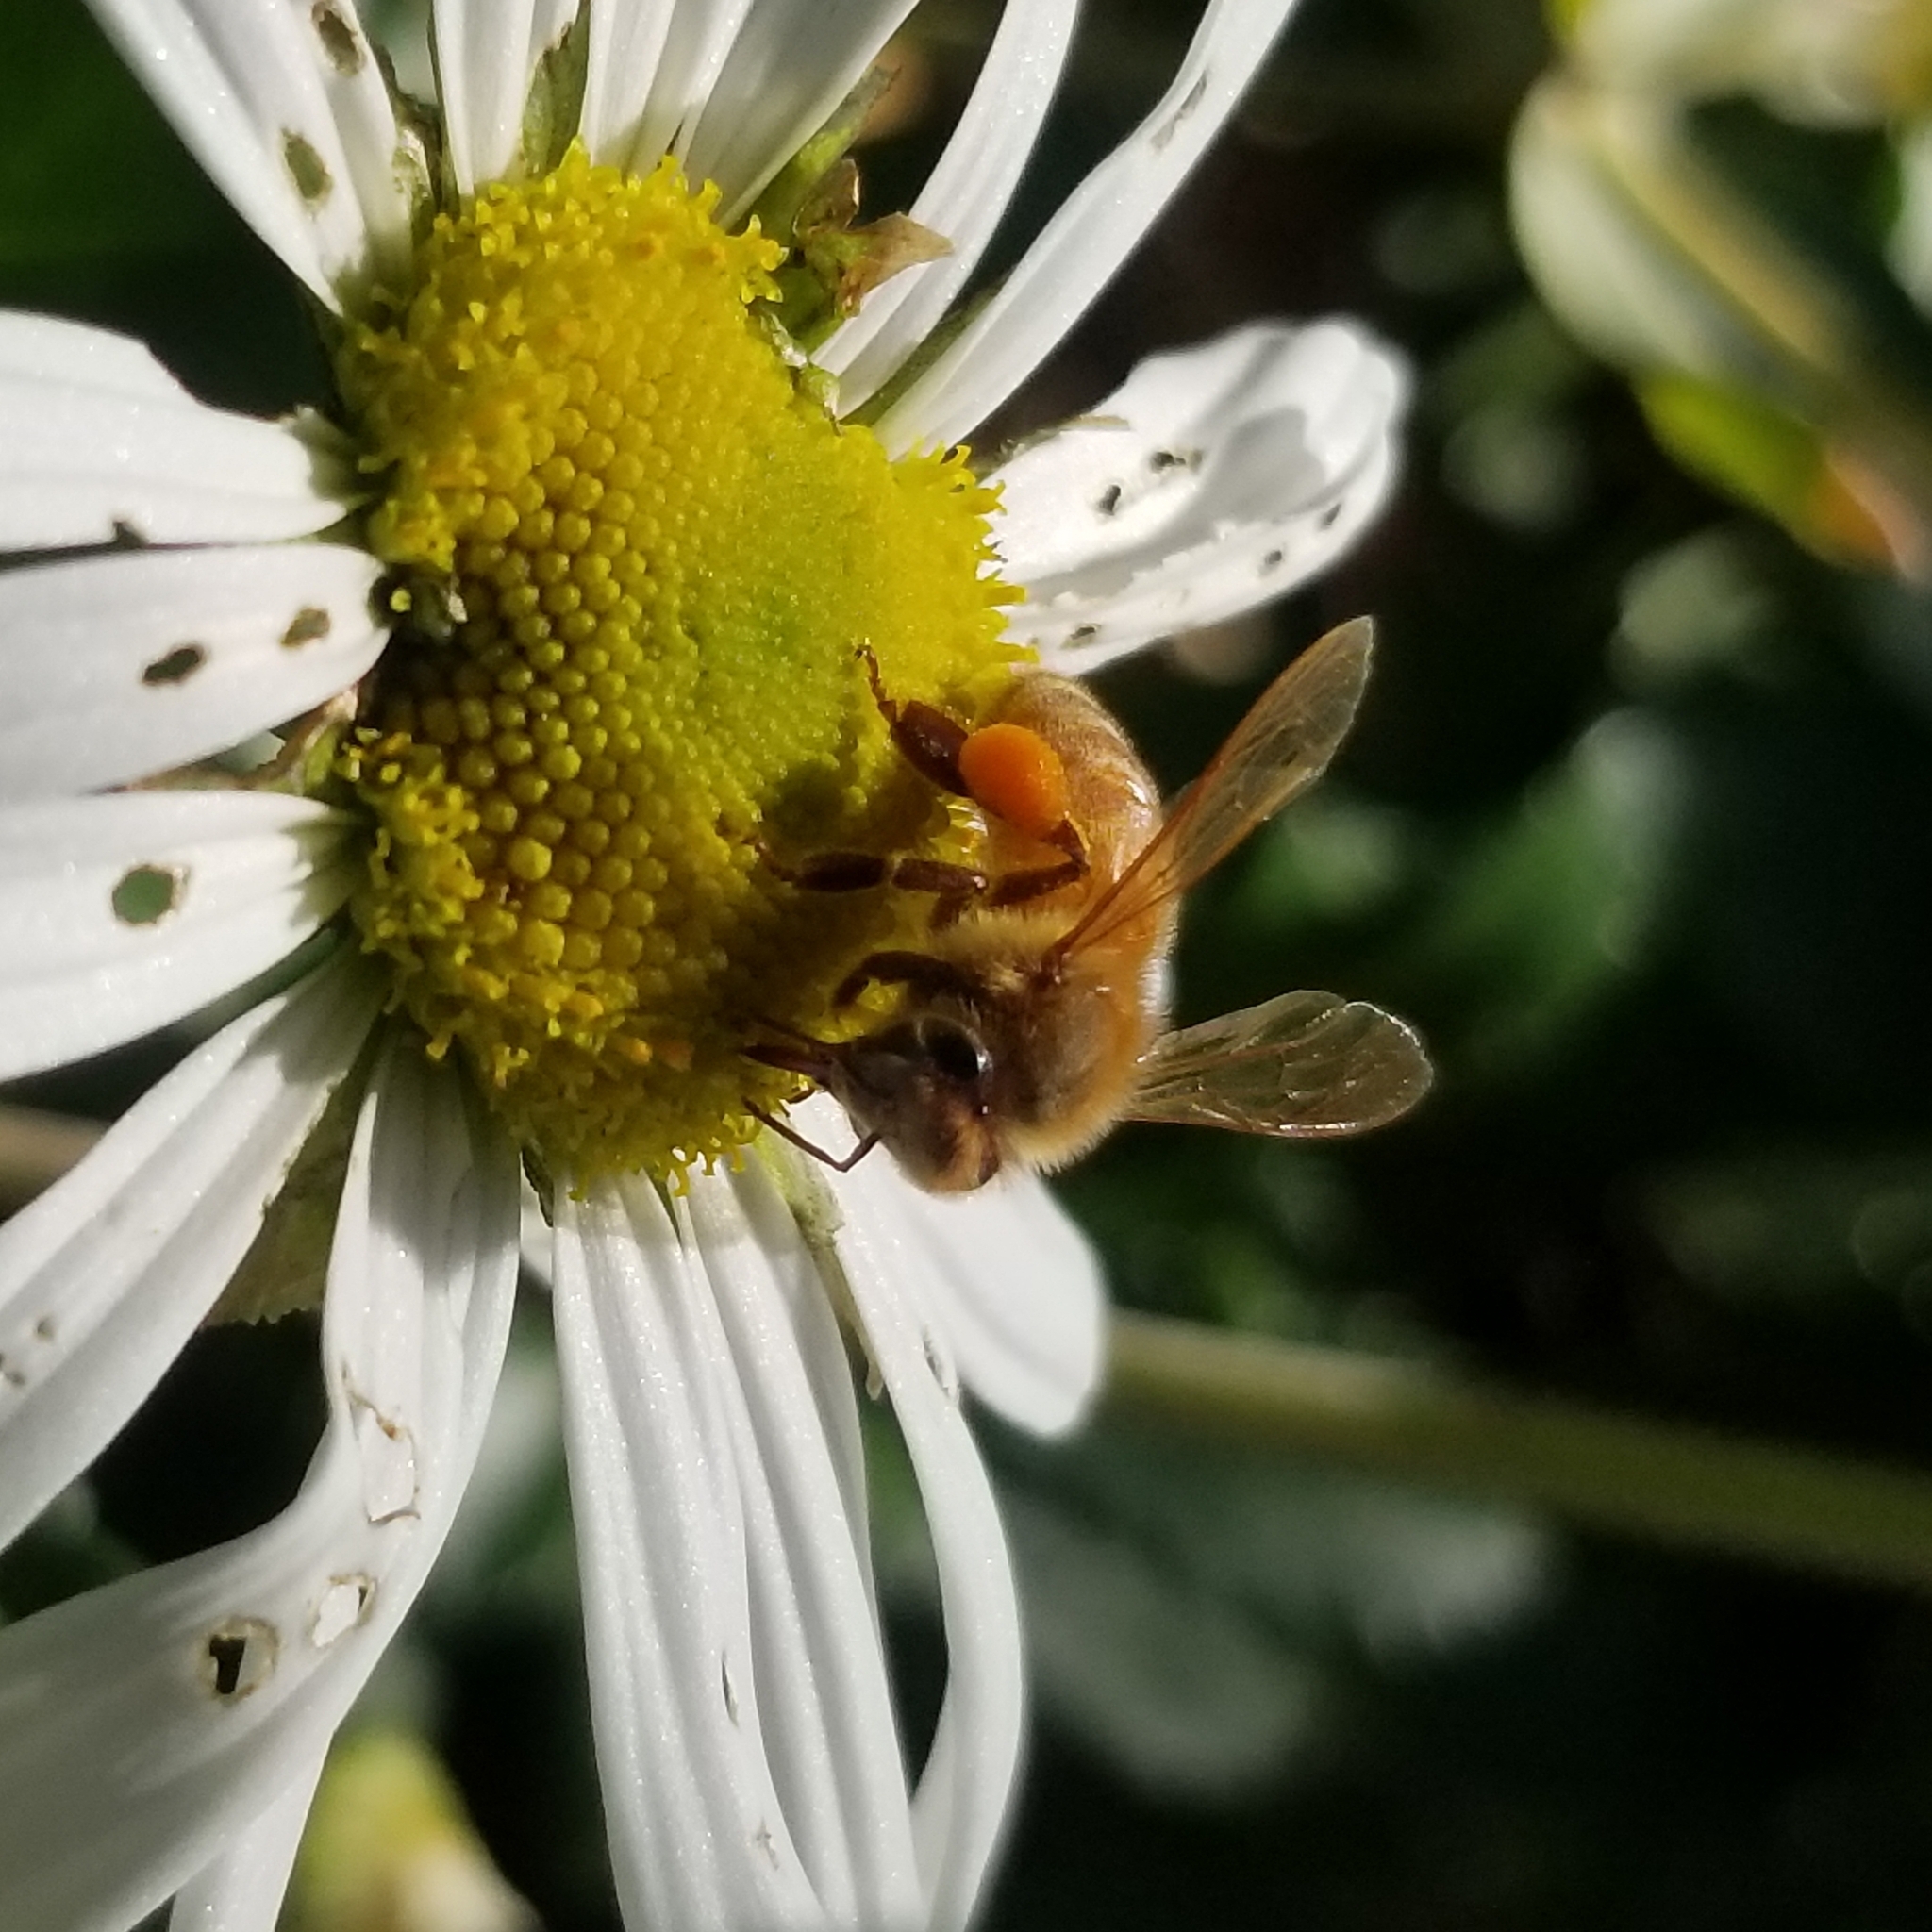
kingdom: Animalia
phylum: Arthropoda
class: Insecta
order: Hymenoptera
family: Apidae
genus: Apis
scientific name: Apis mellifera
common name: Honey bee
